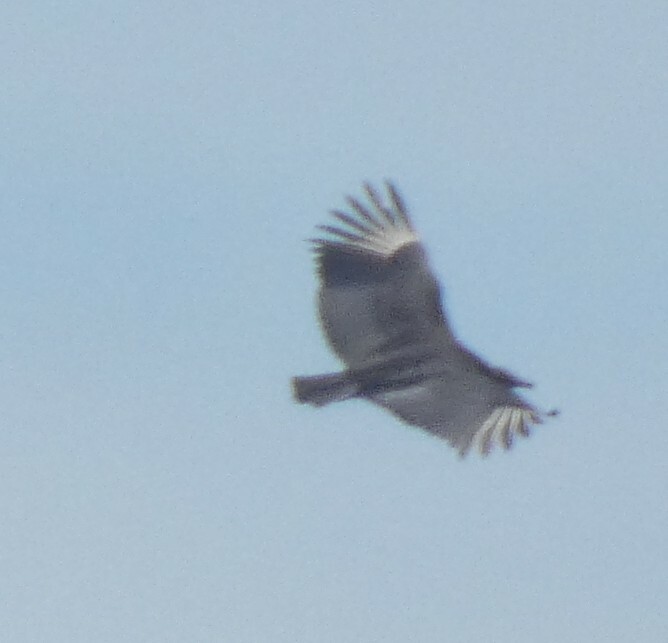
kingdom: Animalia
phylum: Chordata
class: Aves
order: Accipitriformes
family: Cathartidae
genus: Coragyps
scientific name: Coragyps atratus
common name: Black vulture
